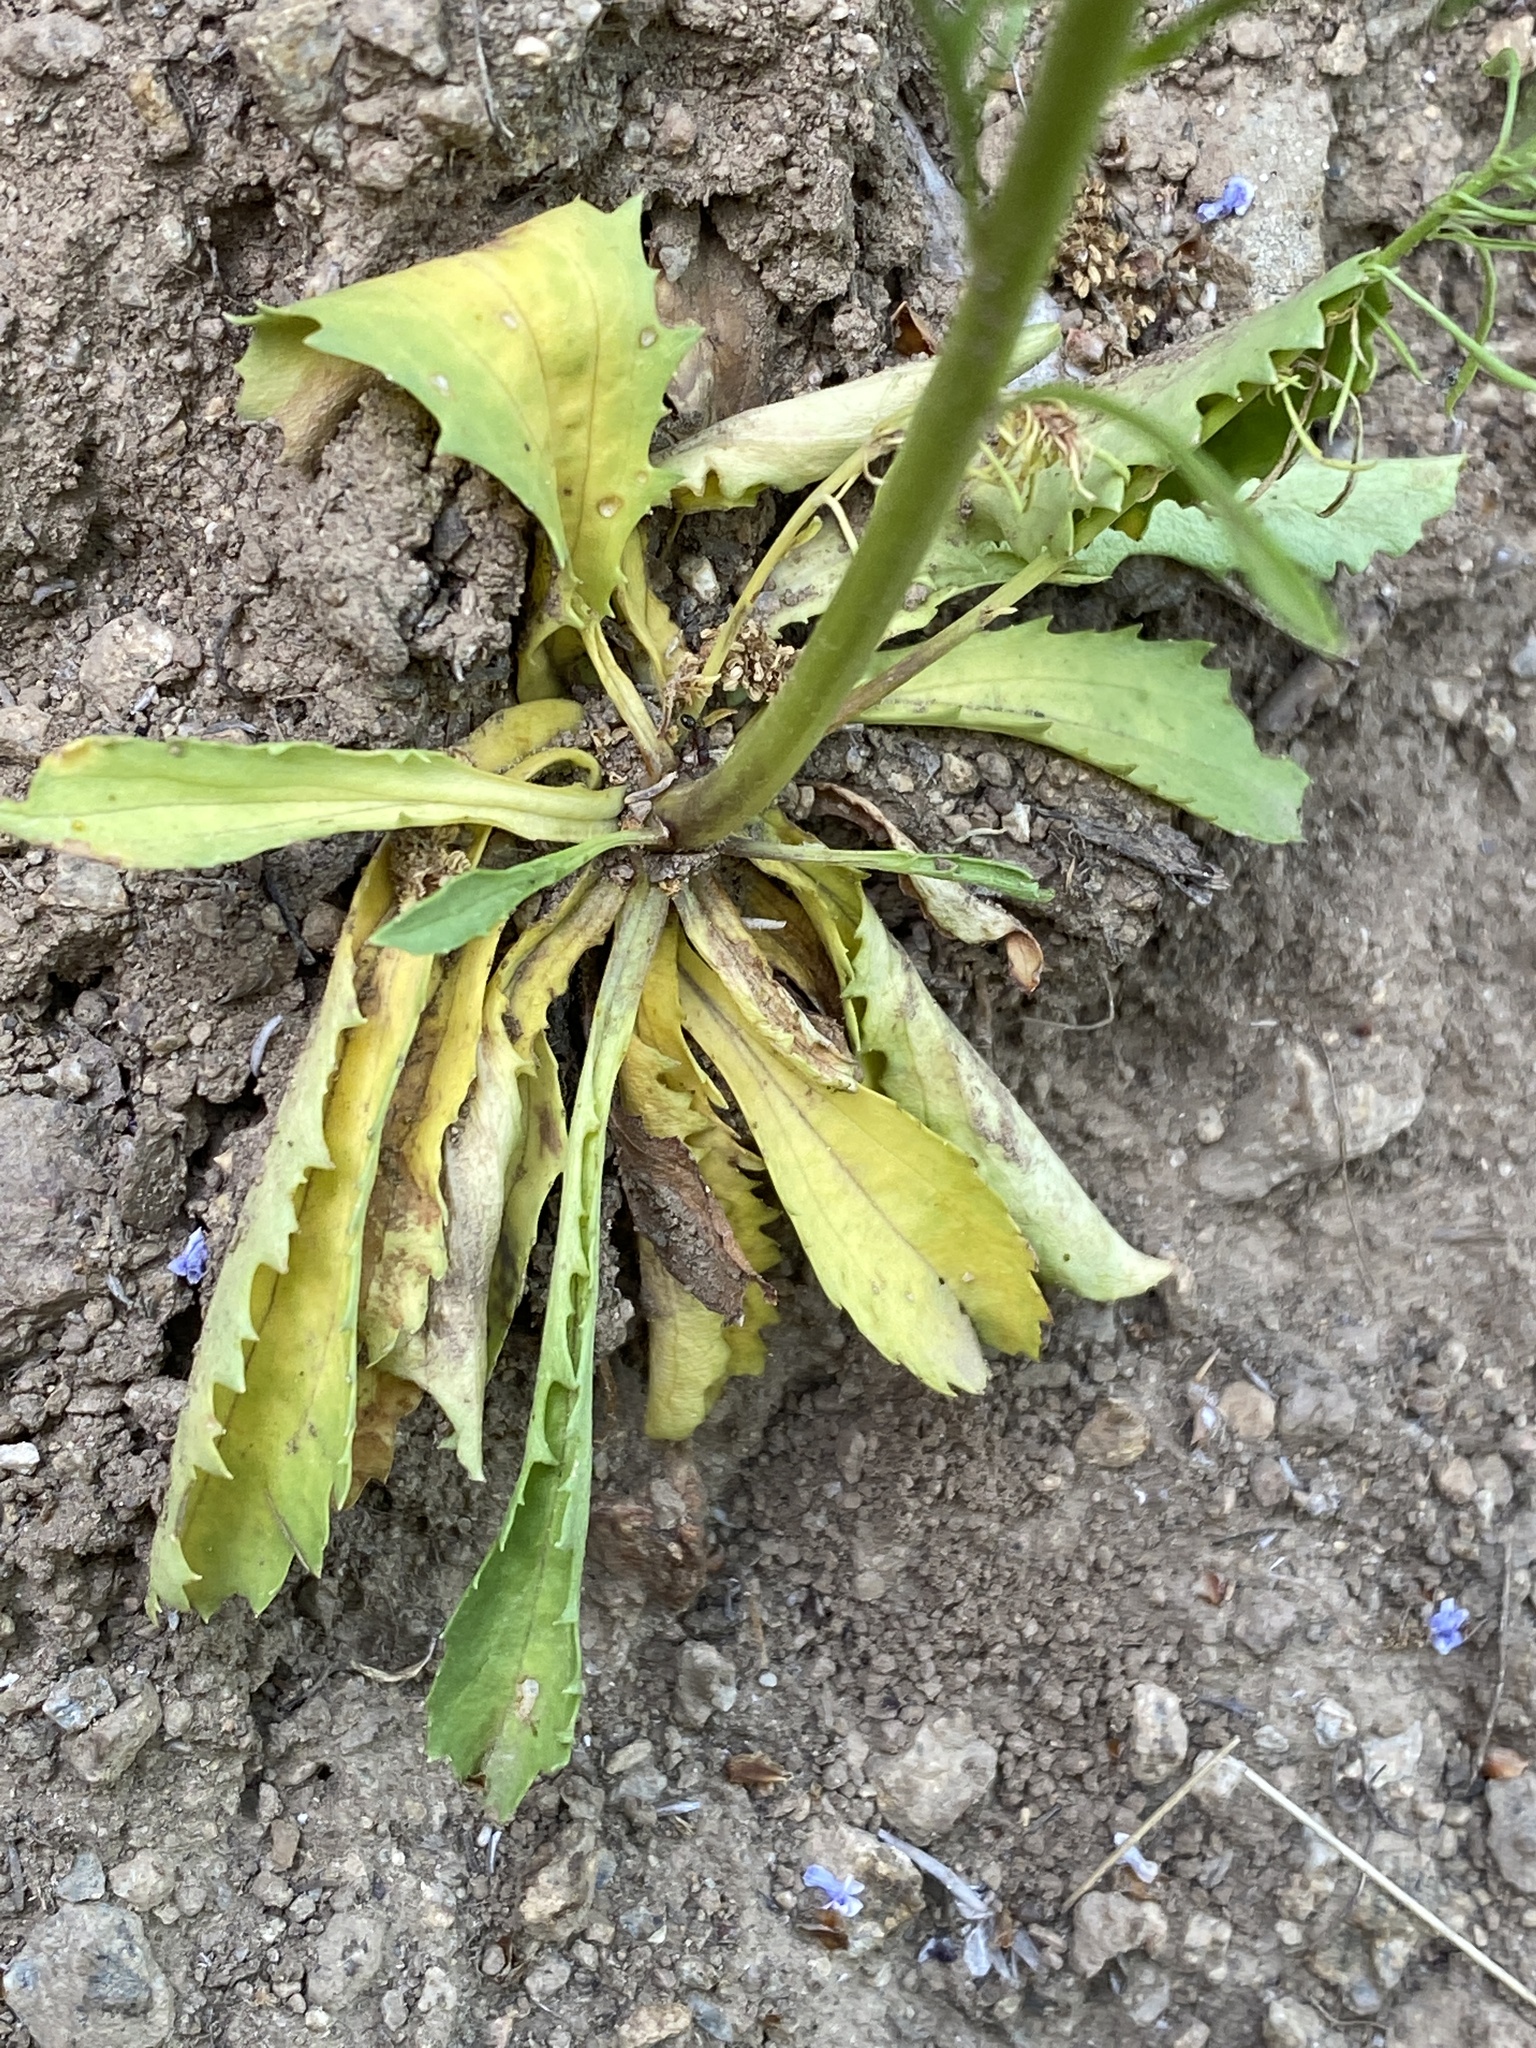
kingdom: Plantae
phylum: Tracheophyta
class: Magnoliopsida
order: Lamiales
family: Plantaginaceae
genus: Anarrhinum
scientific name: Anarrhinum bellidifolium
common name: Daisy-leaved toadflax
